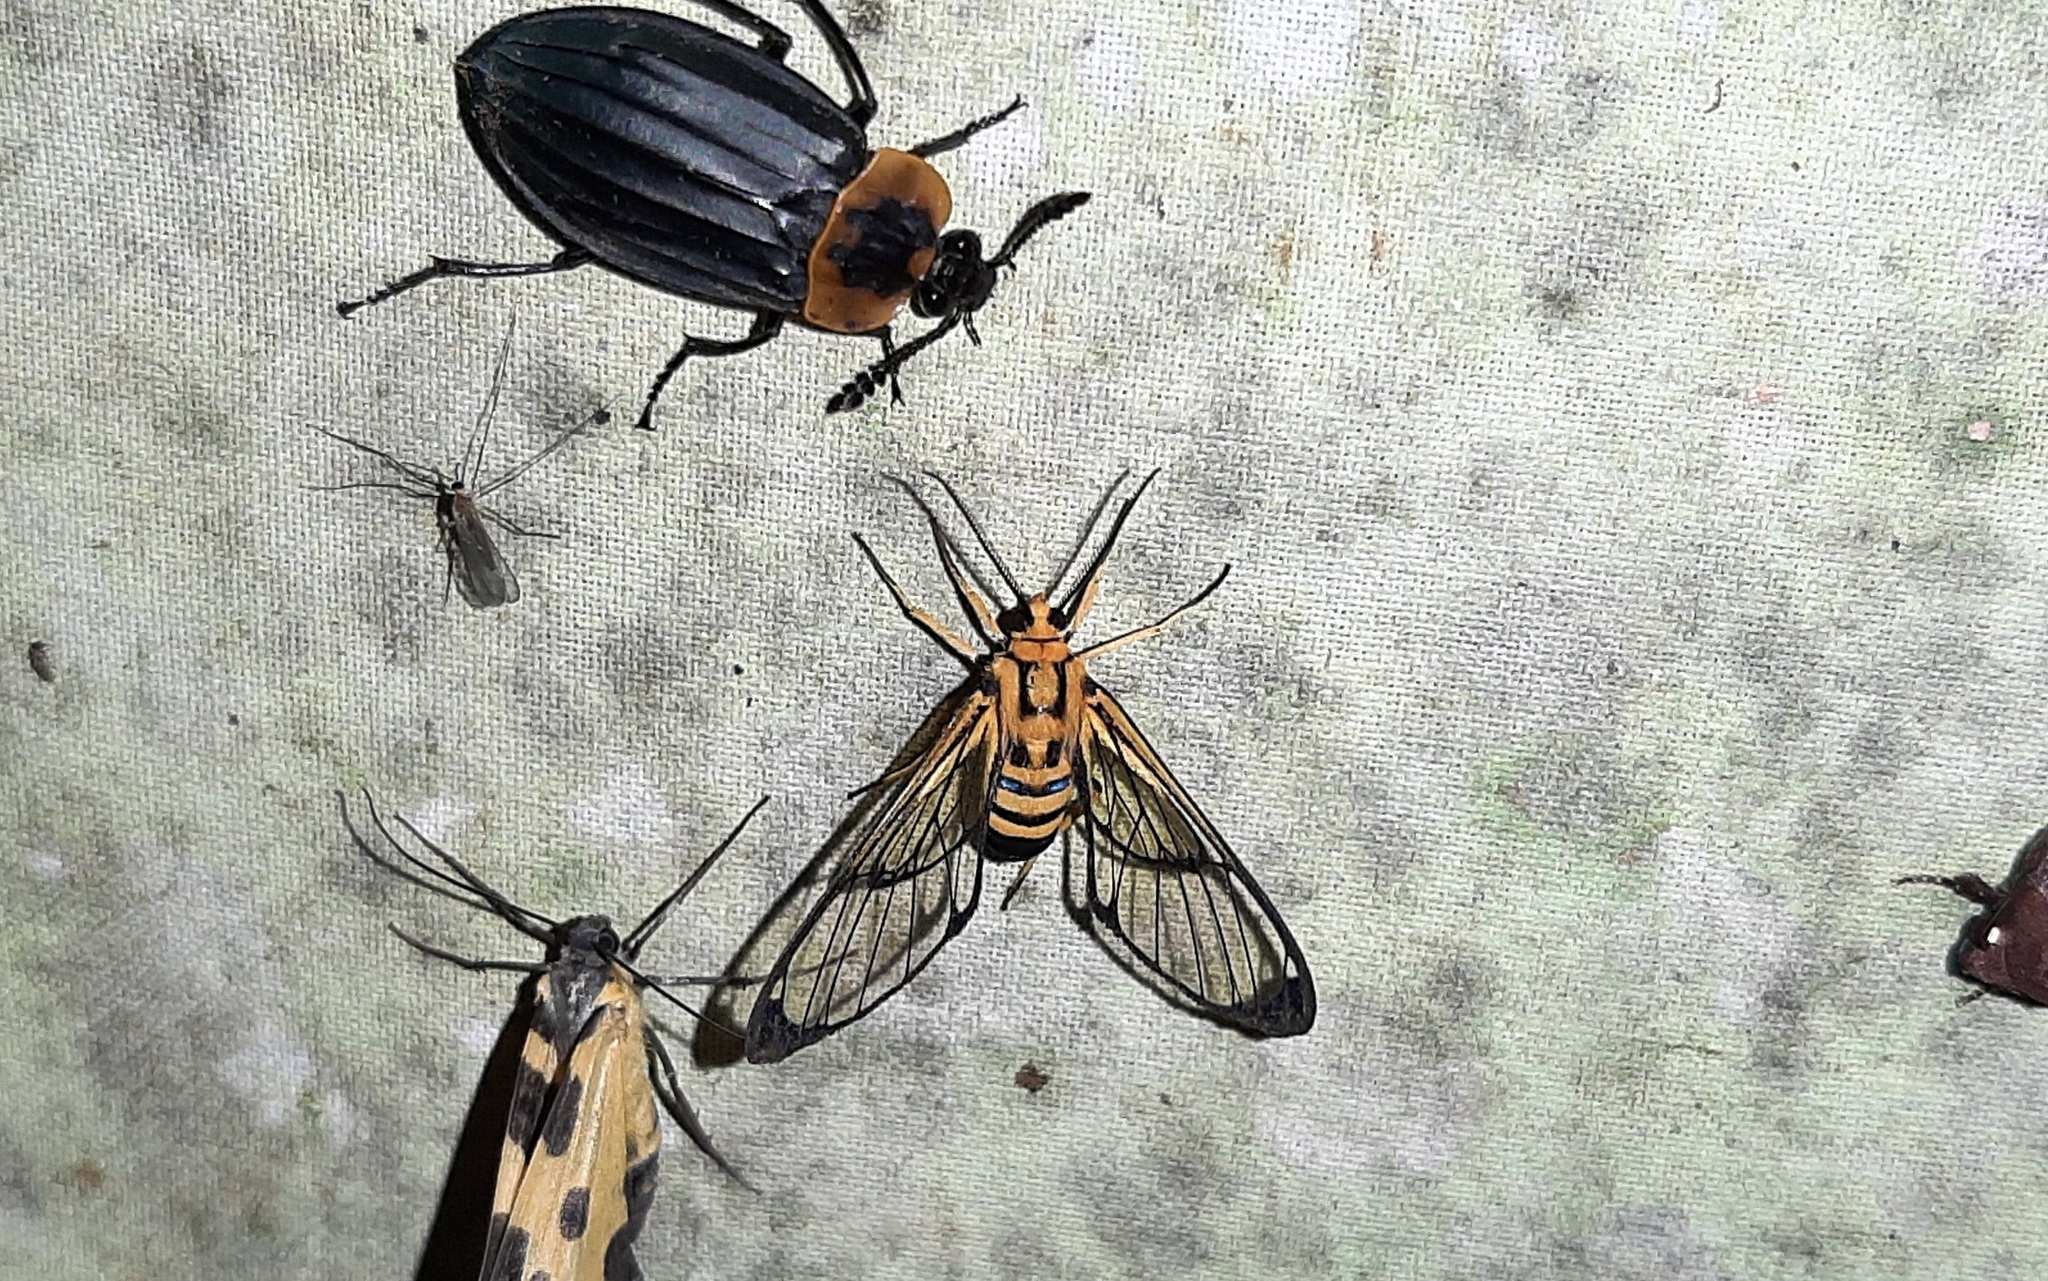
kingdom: Animalia
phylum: Arthropoda
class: Insecta
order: Lepidoptera
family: Erebidae
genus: Mesothen
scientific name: Mesothen nomia
